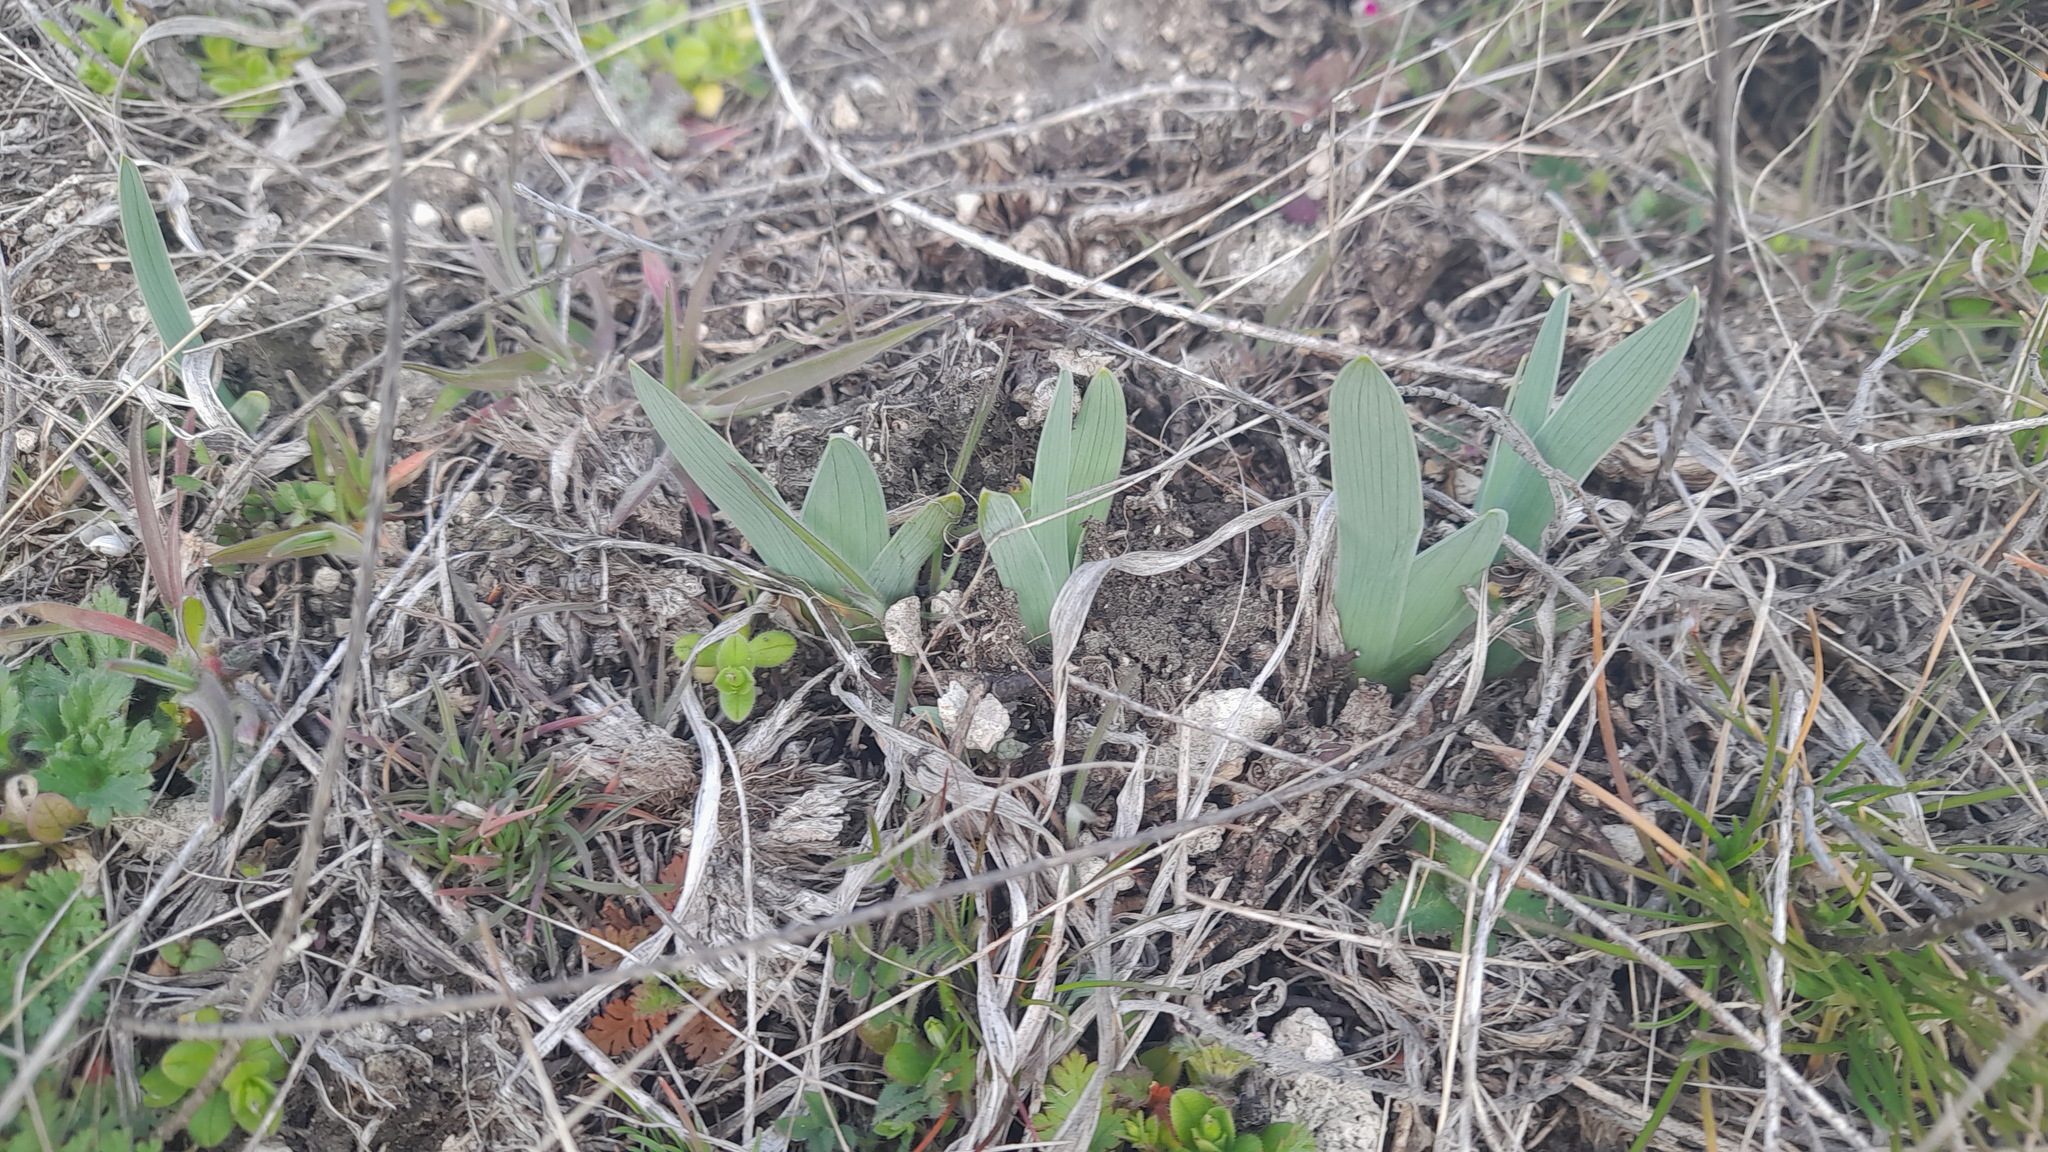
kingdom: Plantae
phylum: Tracheophyta
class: Liliopsida
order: Asparagales
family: Iridaceae
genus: Iris
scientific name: Iris pumila
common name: Dwarf iris
